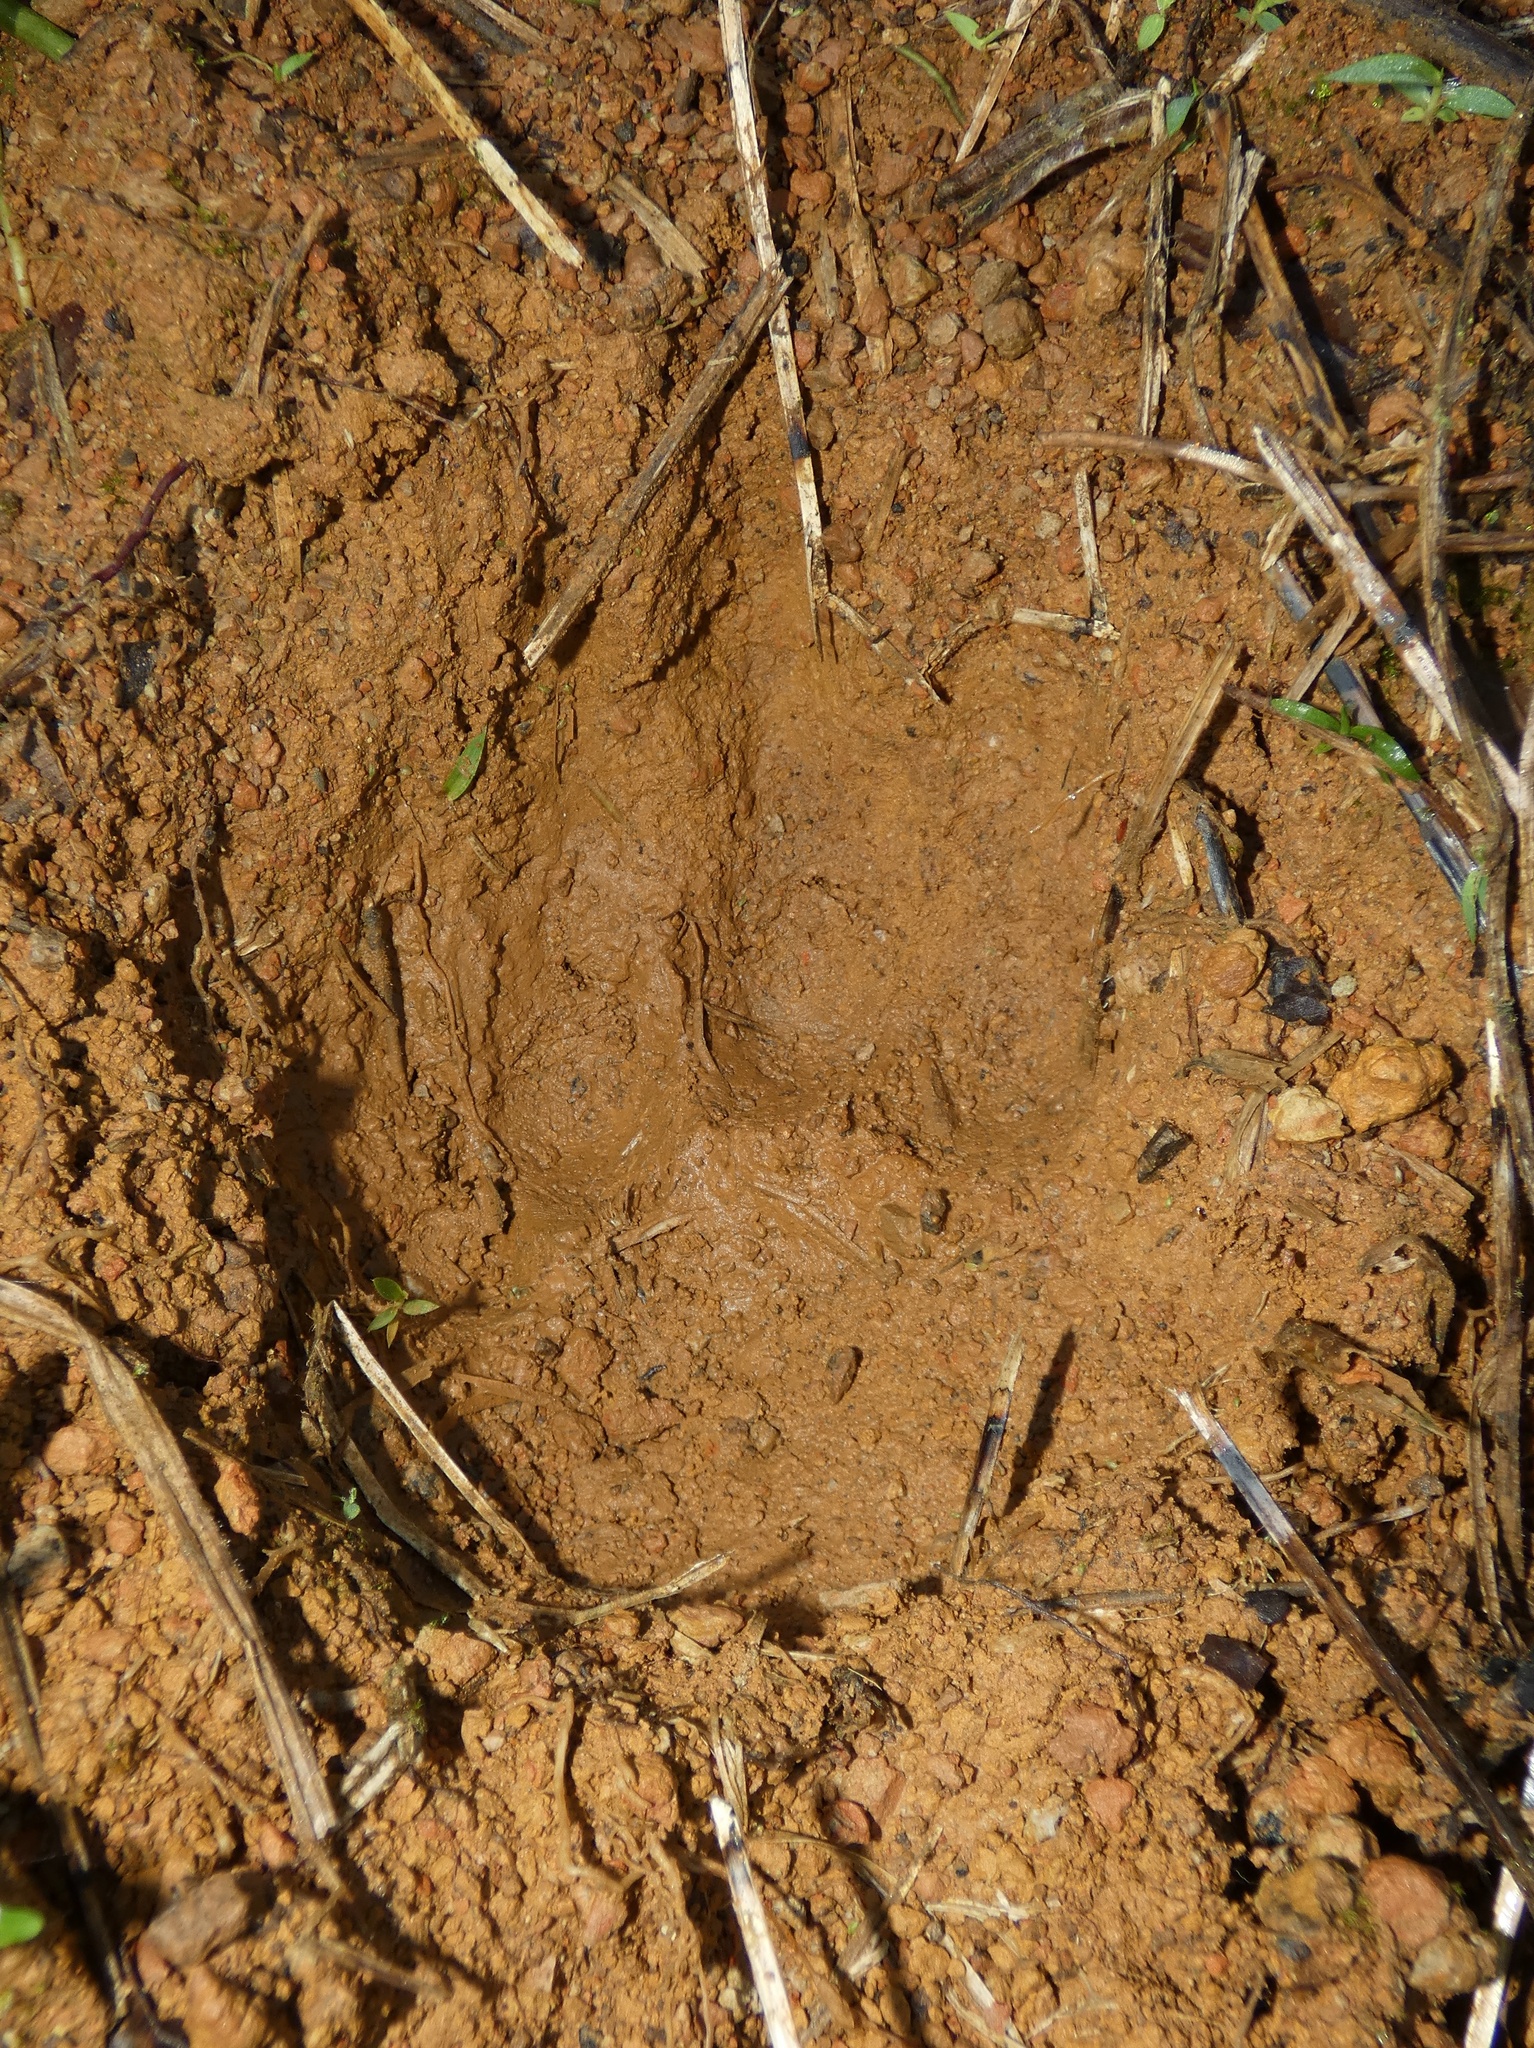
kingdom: Animalia
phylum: Chordata
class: Mammalia
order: Carnivora
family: Felidae
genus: Panthera
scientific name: Panthera onca
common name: Jaguar
